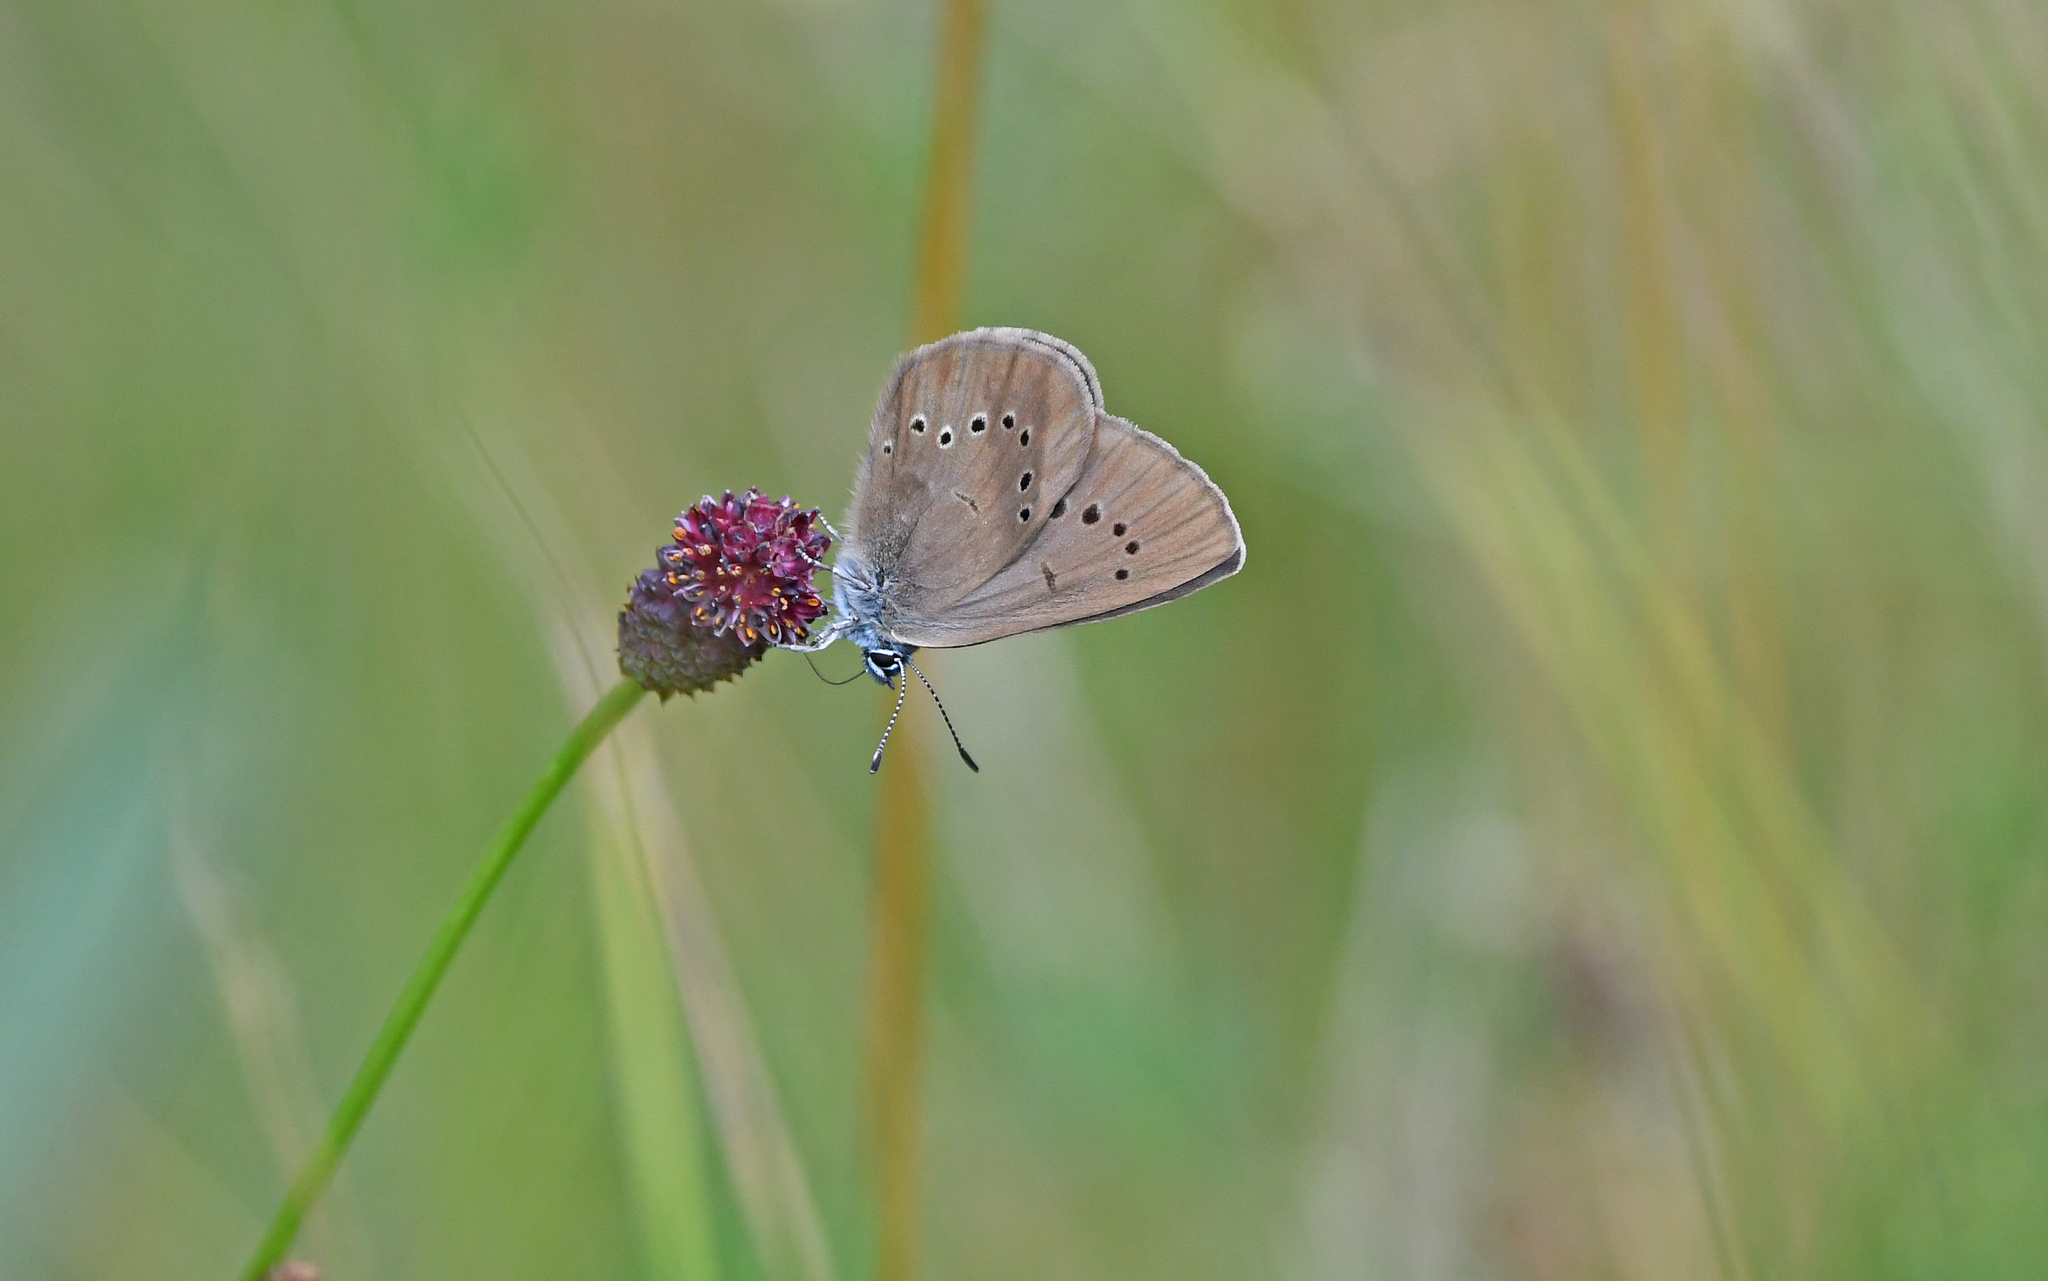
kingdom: Animalia
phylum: Arthropoda
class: Insecta
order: Lepidoptera
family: Lycaenidae
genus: Maculinea
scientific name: Maculinea nausithous
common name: Dusky large blue
